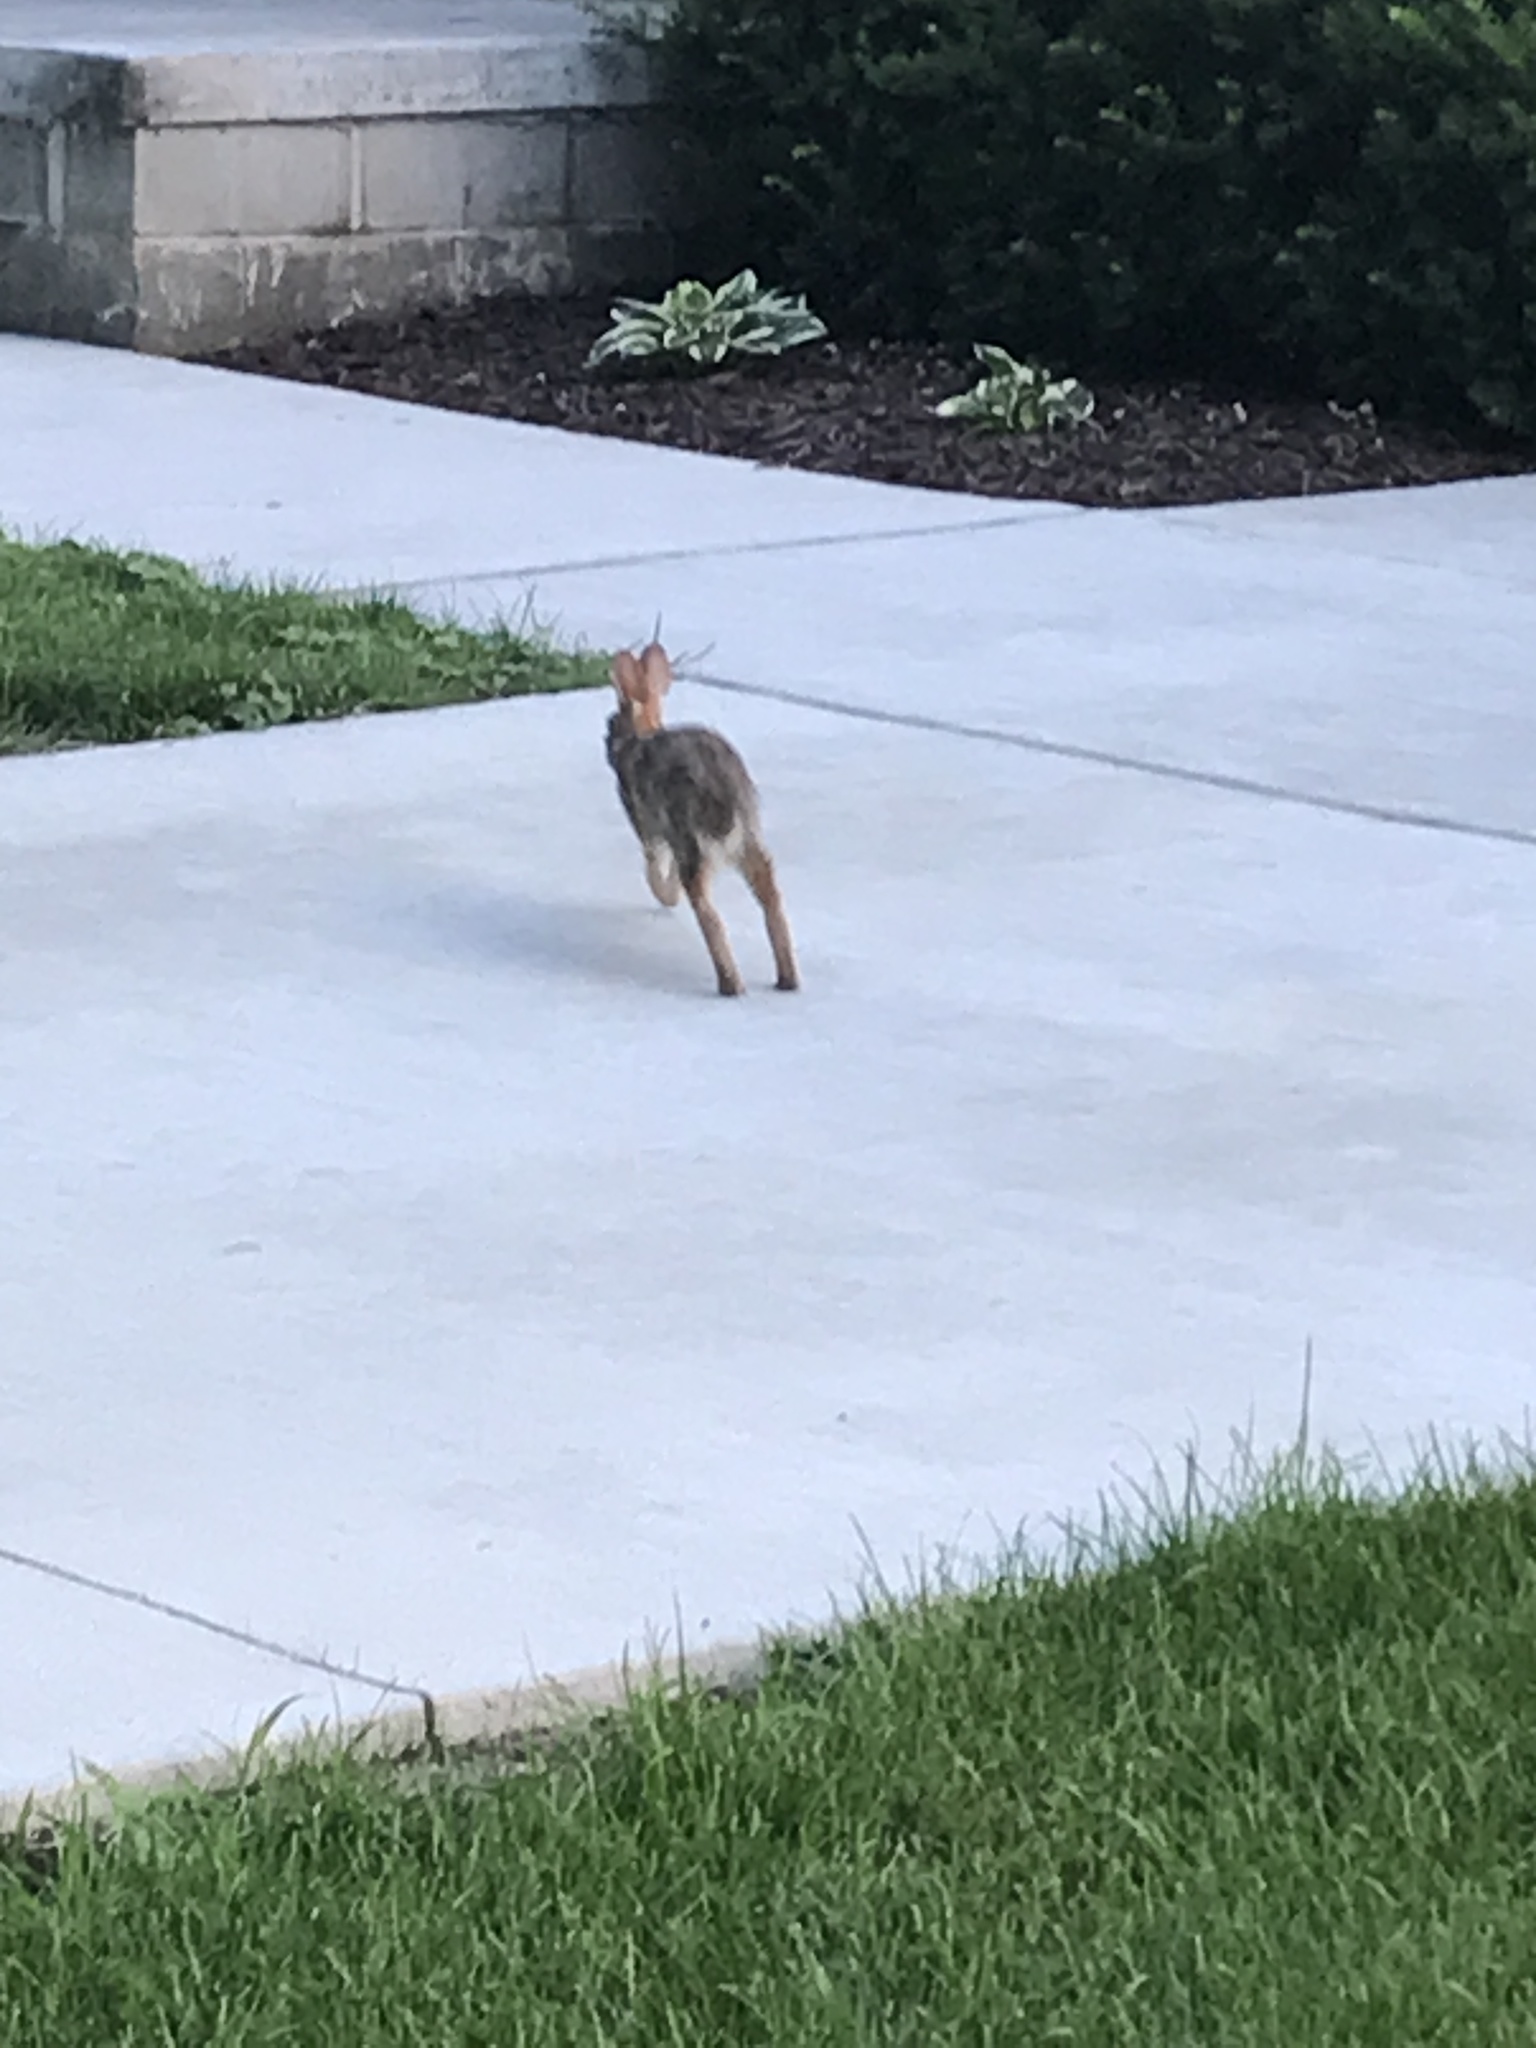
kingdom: Animalia
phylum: Chordata
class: Mammalia
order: Lagomorpha
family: Leporidae
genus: Sylvilagus
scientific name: Sylvilagus floridanus
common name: Eastern cottontail
